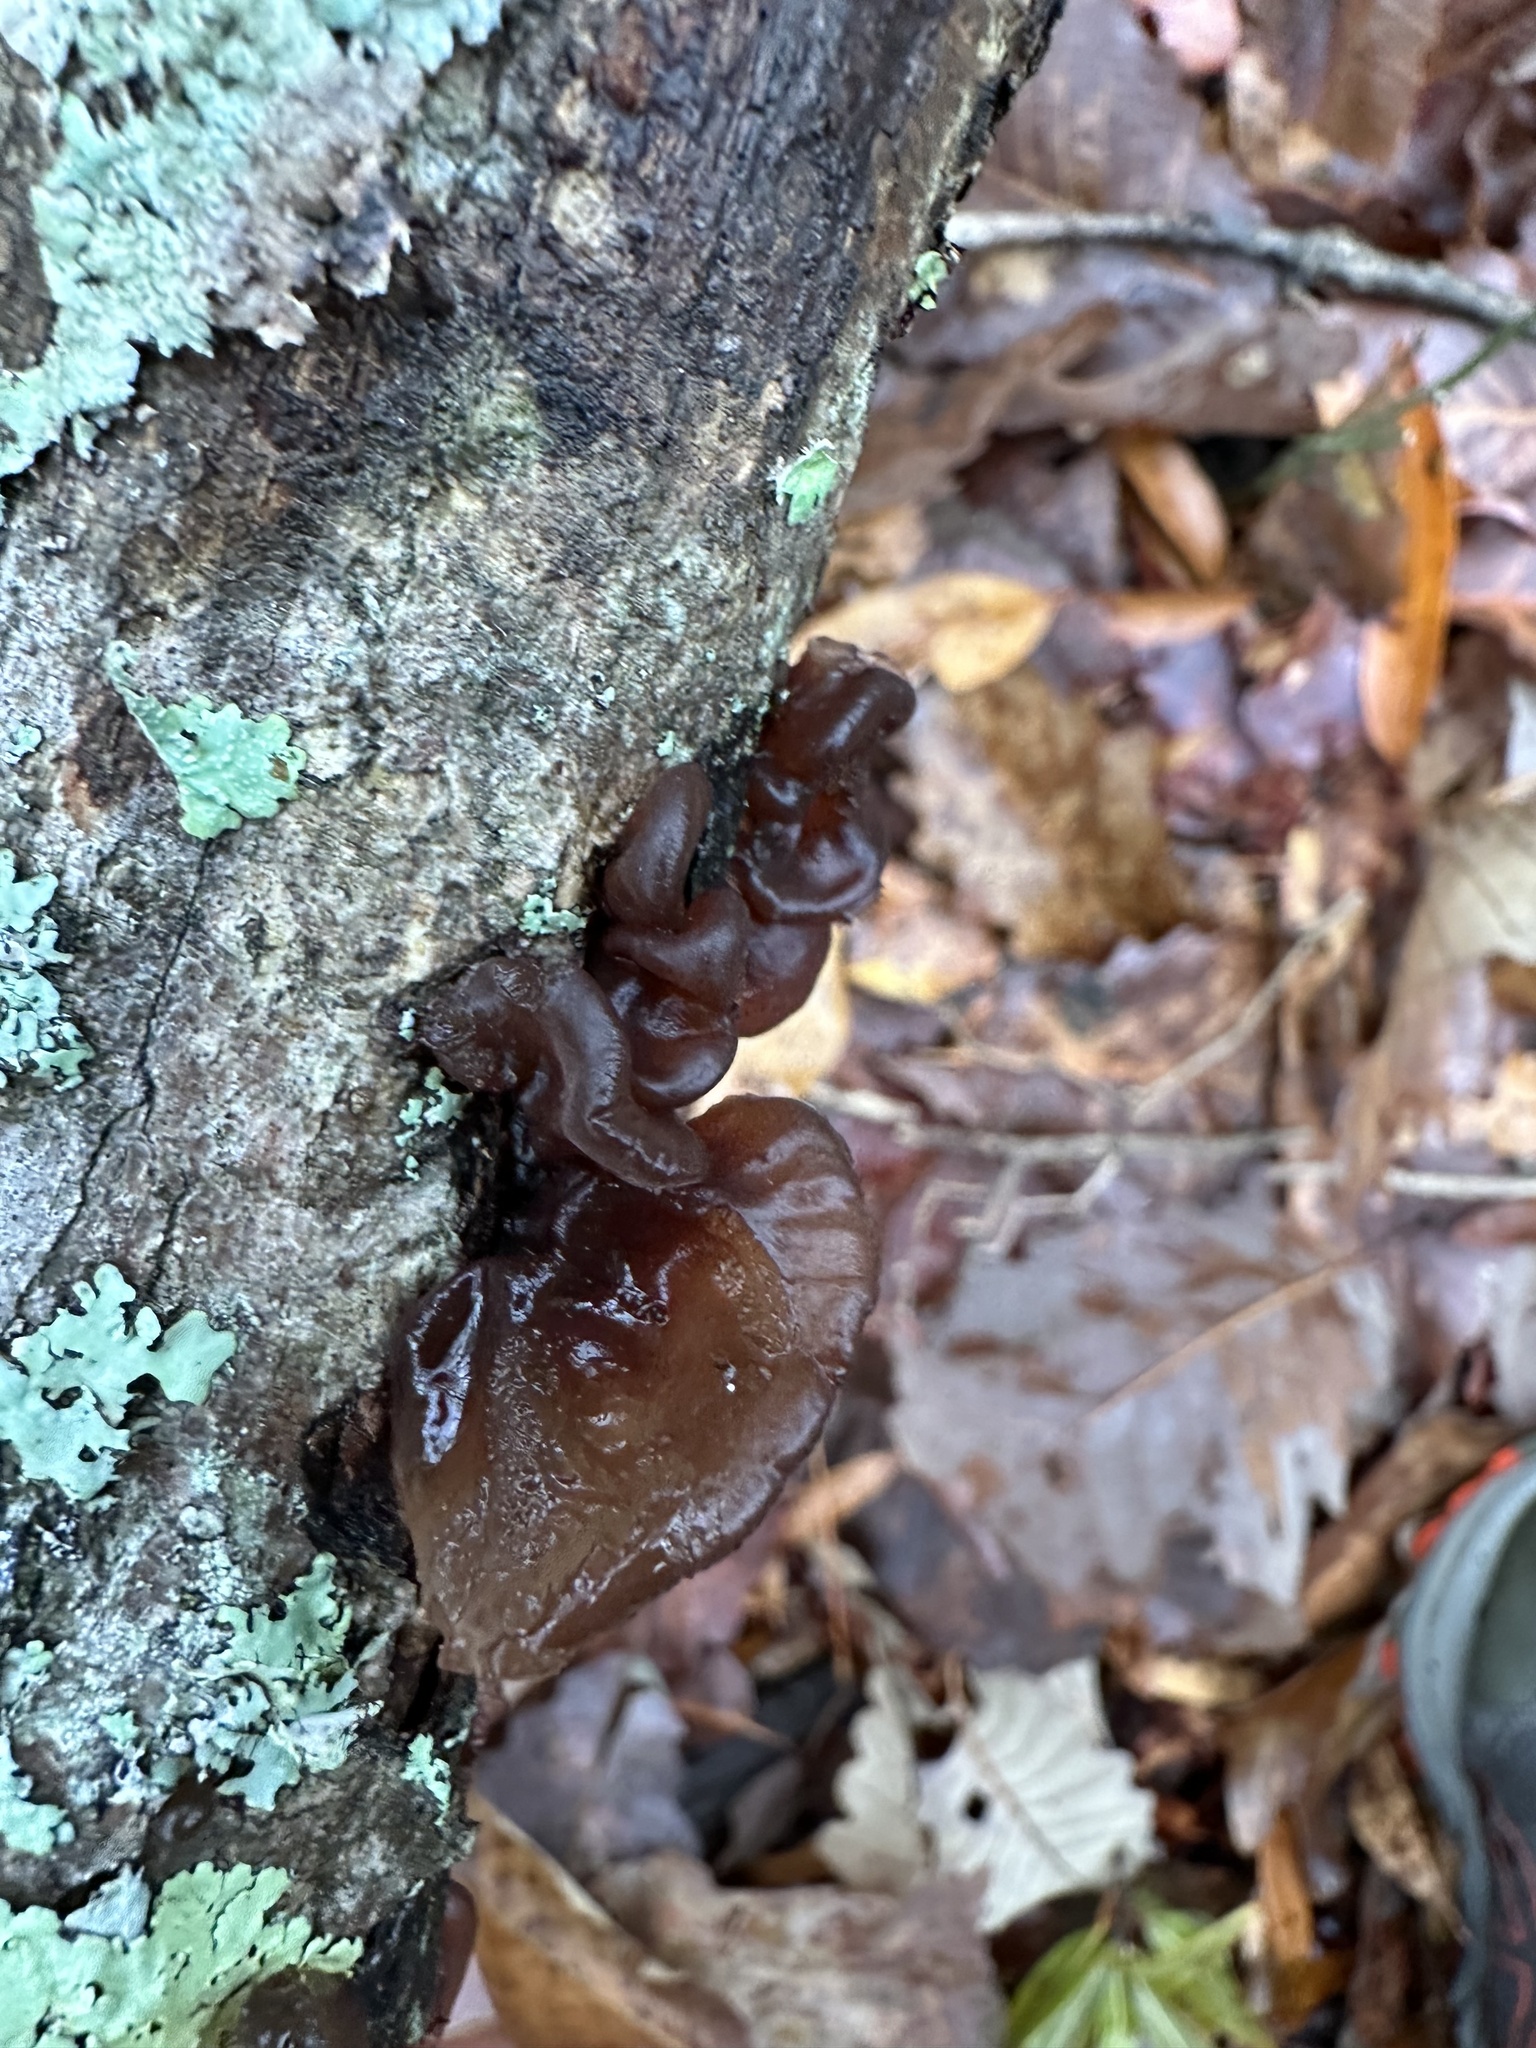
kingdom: Fungi
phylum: Basidiomycota
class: Agaricomycetes
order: Auriculariales
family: Auriculariaceae
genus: Exidia
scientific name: Exidia
